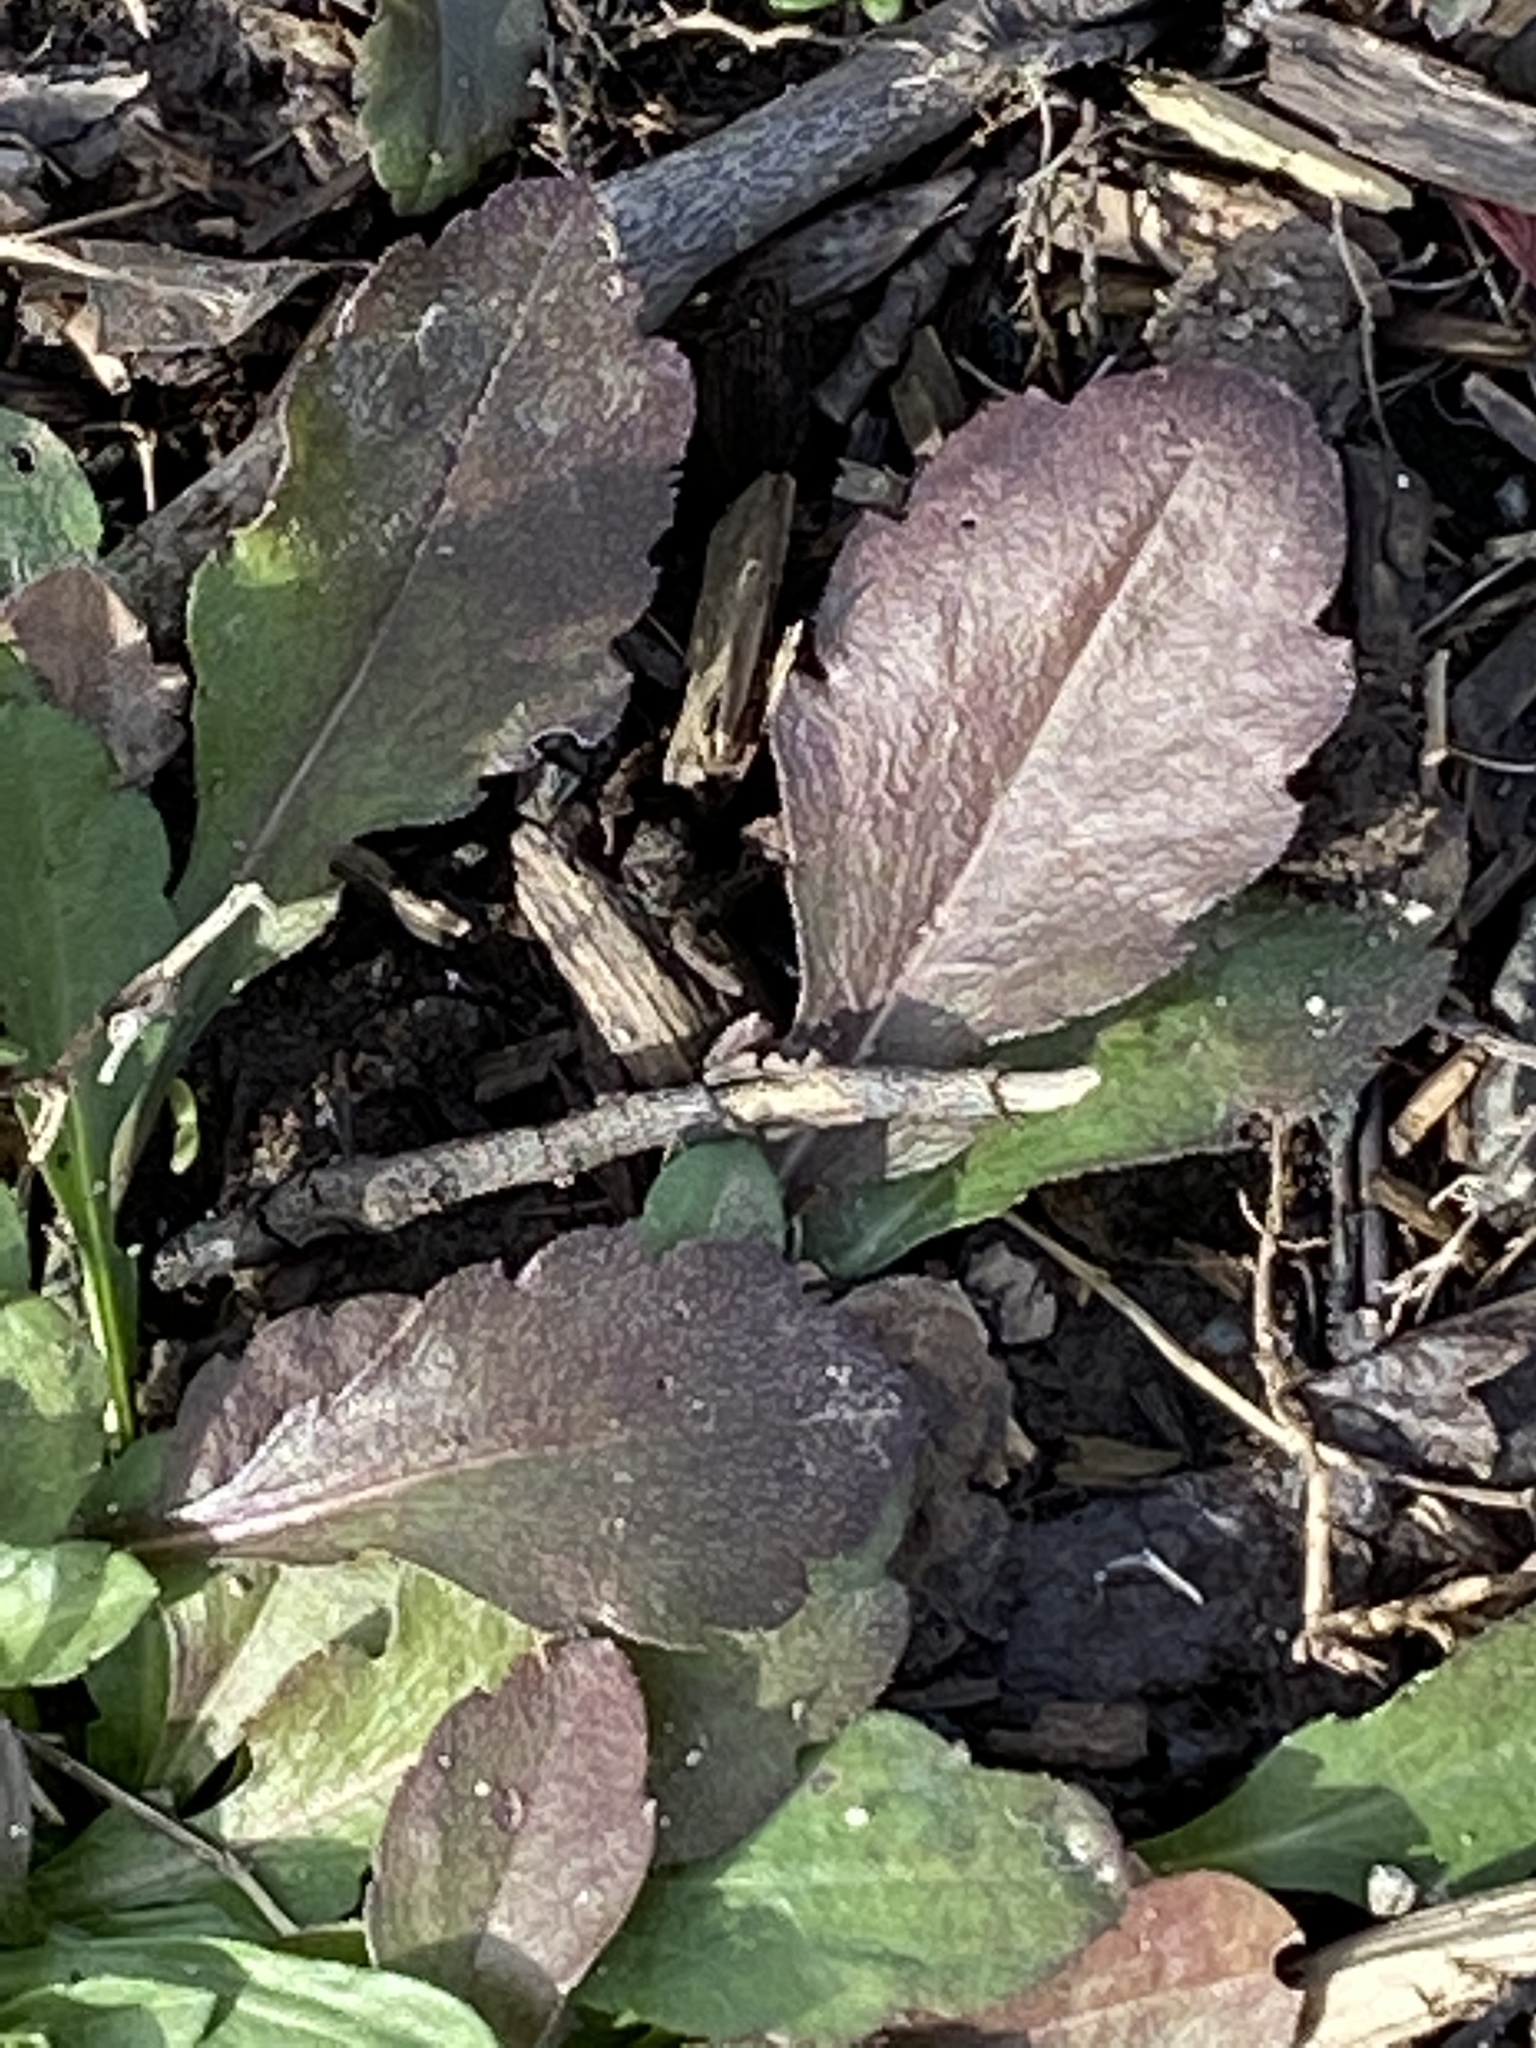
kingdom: Plantae
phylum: Tracheophyta
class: Magnoliopsida
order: Asterales
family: Asteraceae
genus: Erigeron
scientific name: Erigeron canadensis
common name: Canadian fleabane
